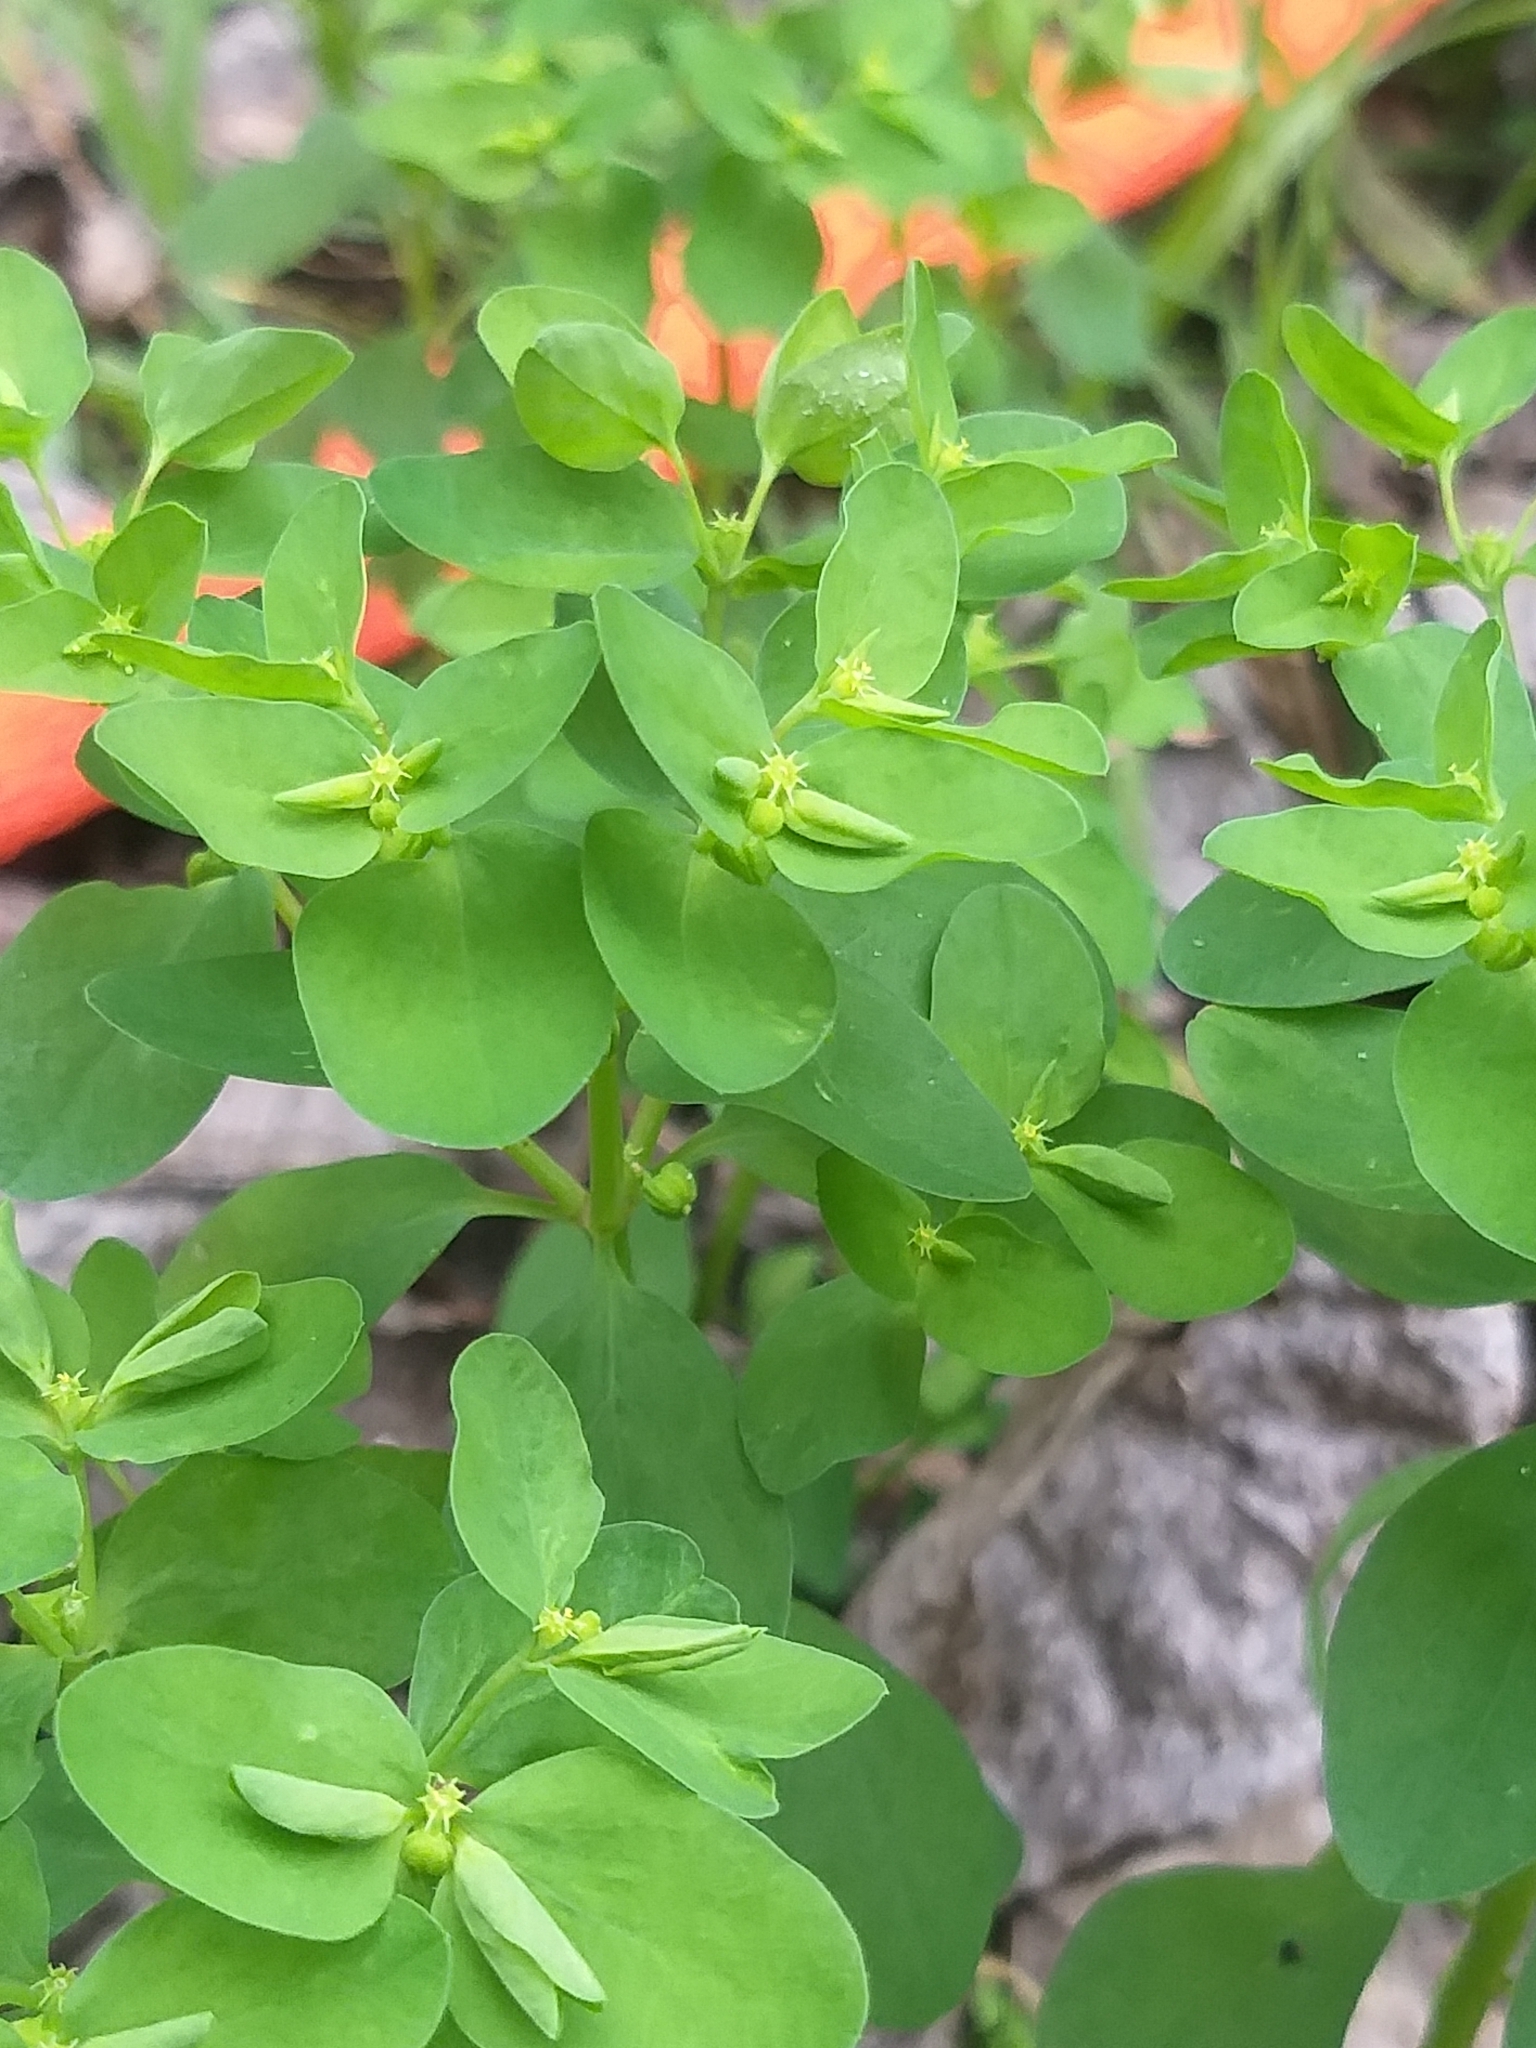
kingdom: Plantae
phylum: Tracheophyta
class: Magnoliopsida
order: Malpighiales
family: Euphorbiaceae
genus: Euphorbia
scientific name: Euphorbia peplus
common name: Petty spurge
